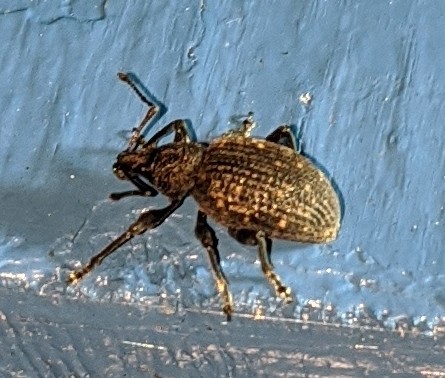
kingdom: Animalia
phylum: Arthropoda
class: Insecta
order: Coleoptera
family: Curculionidae
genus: Otiorhynchus
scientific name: Otiorhynchus sulcatus
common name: Black vine weevil
